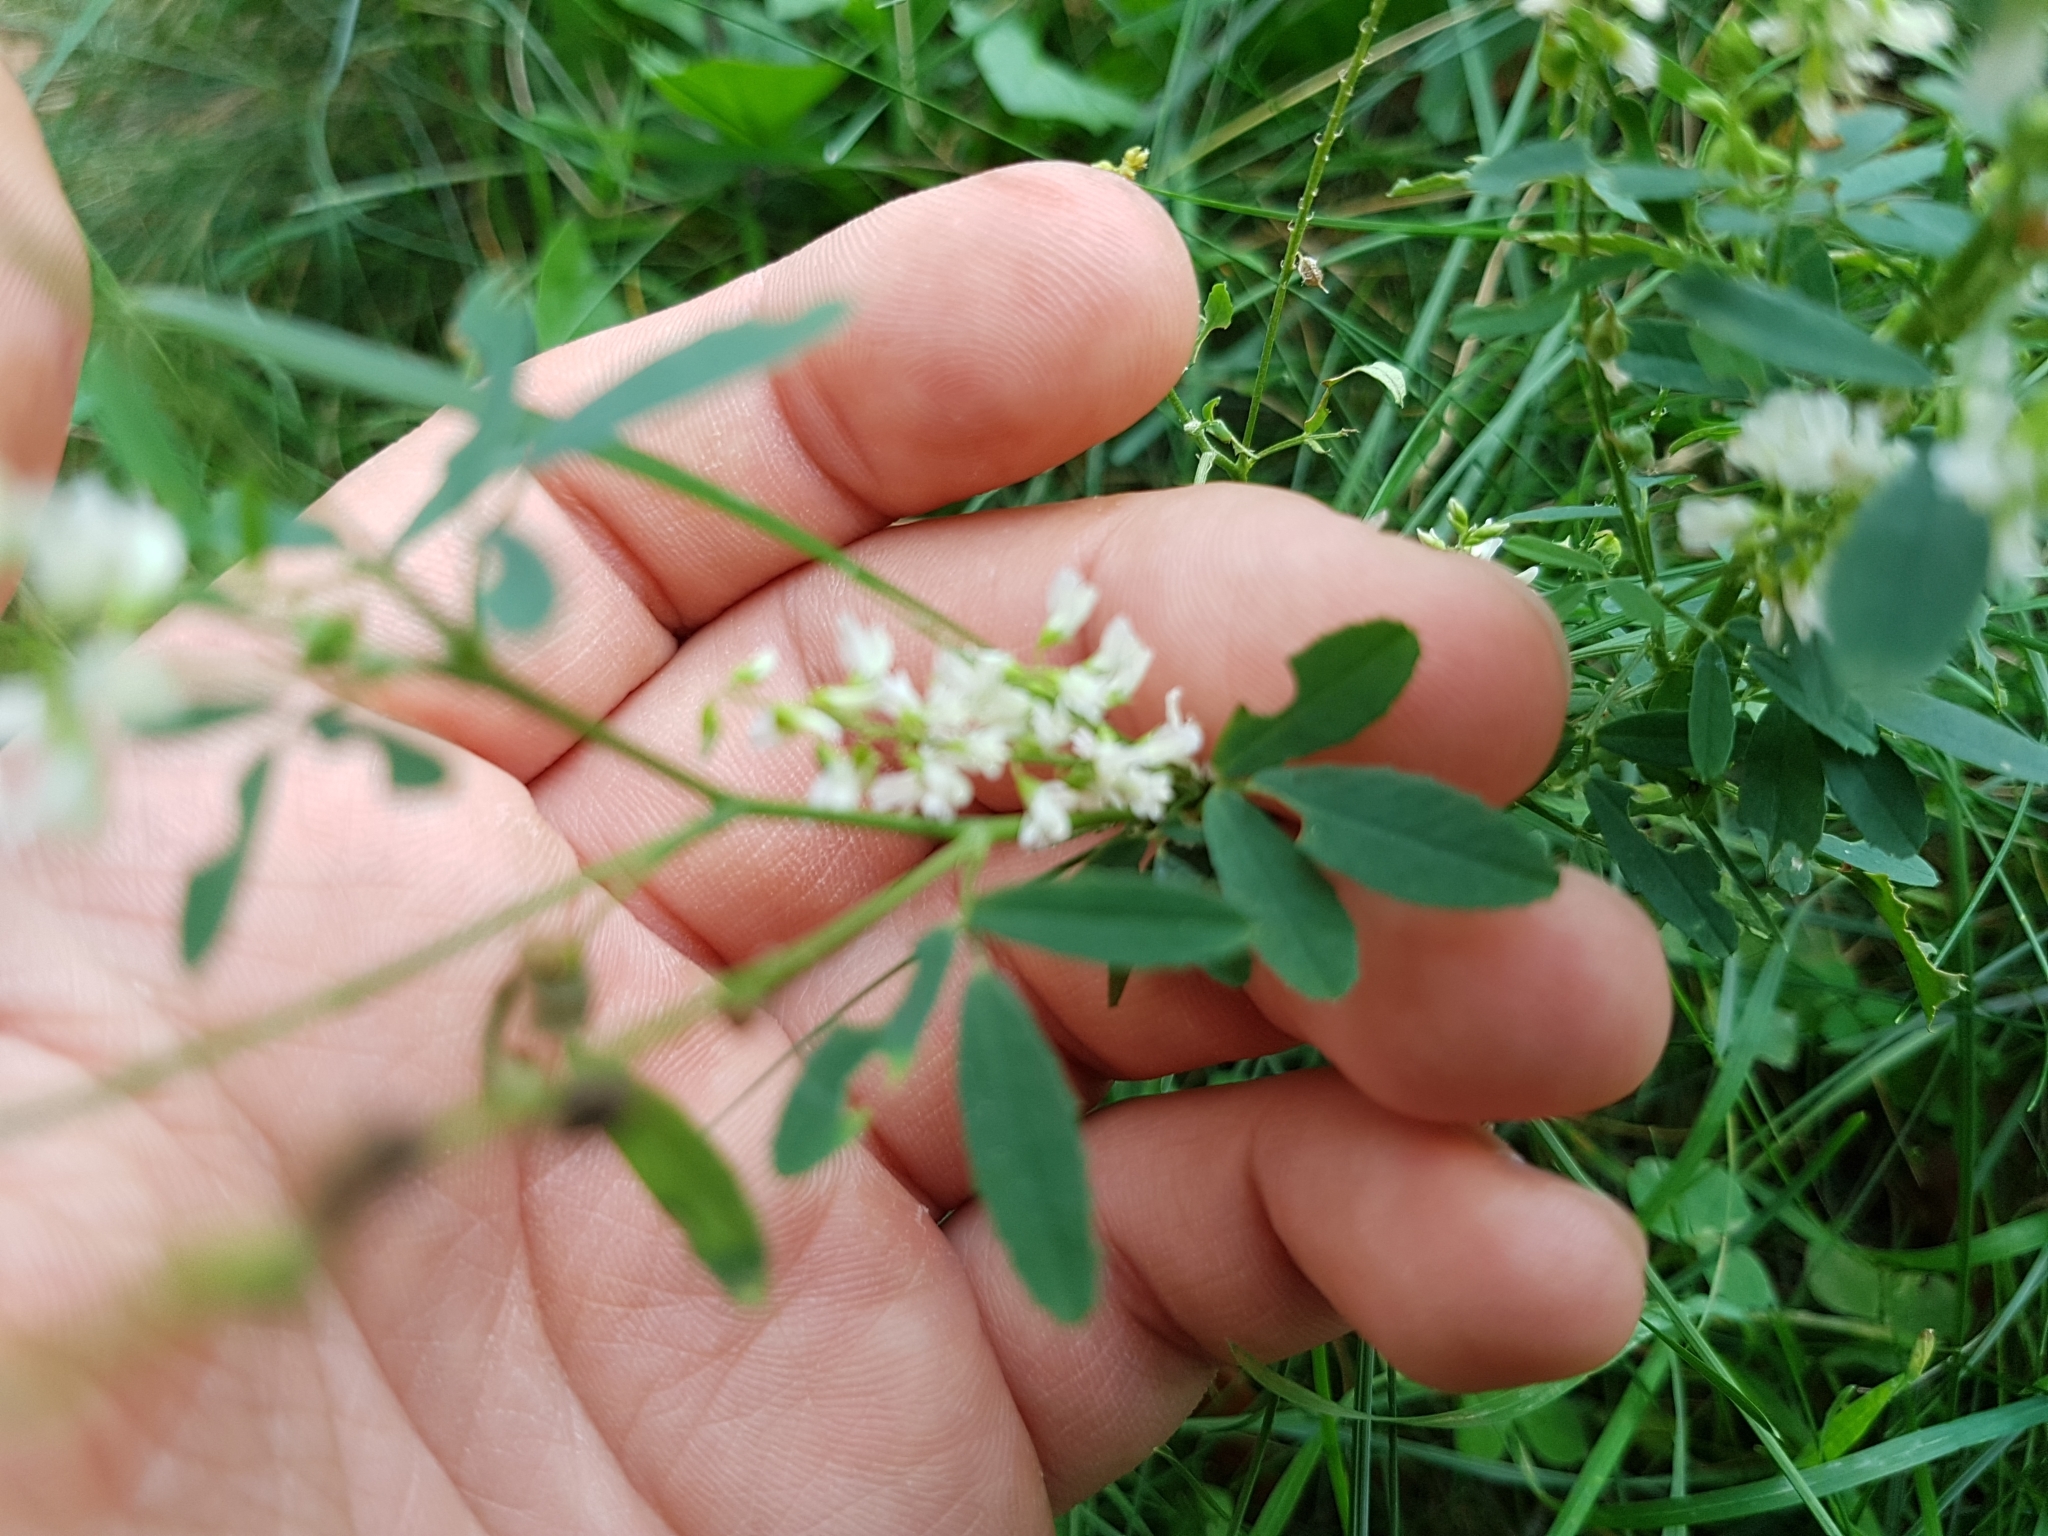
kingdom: Plantae
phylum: Tracheophyta
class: Magnoliopsida
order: Fabales
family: Fabaceae
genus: Melilotus
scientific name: Melilotus albus
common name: White melilot
